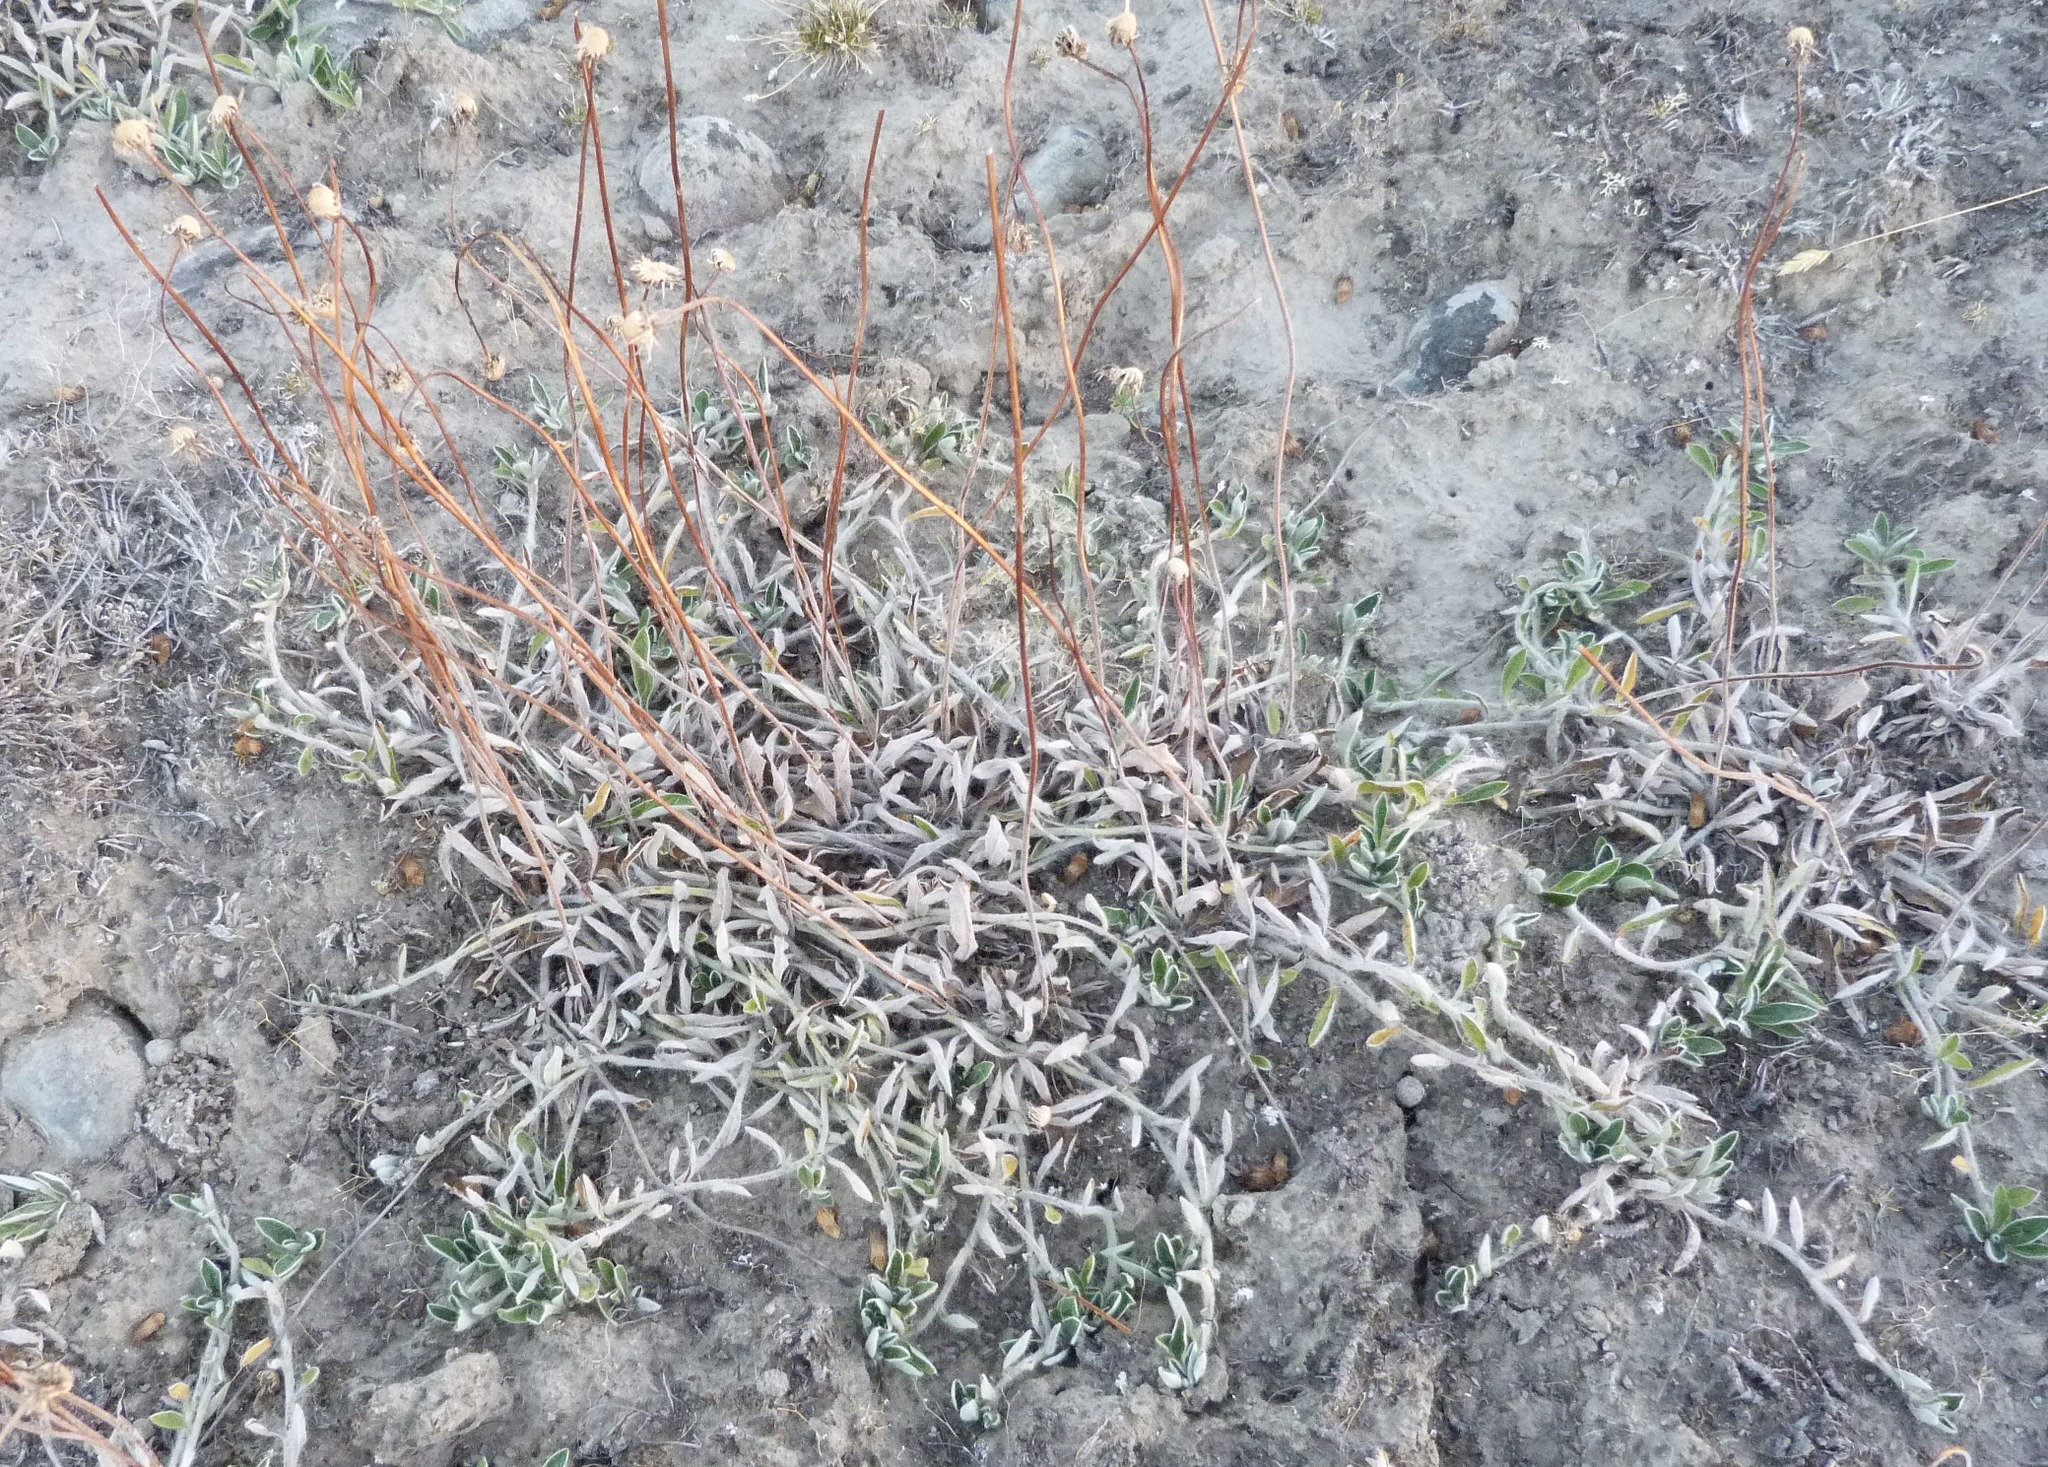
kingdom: Plantae
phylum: Tracheophyta
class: Magnoliopsida
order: Asterales
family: Asteraceae
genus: Pilosella
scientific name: Pilosella officinarum
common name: Mouse-ear hawkweed
